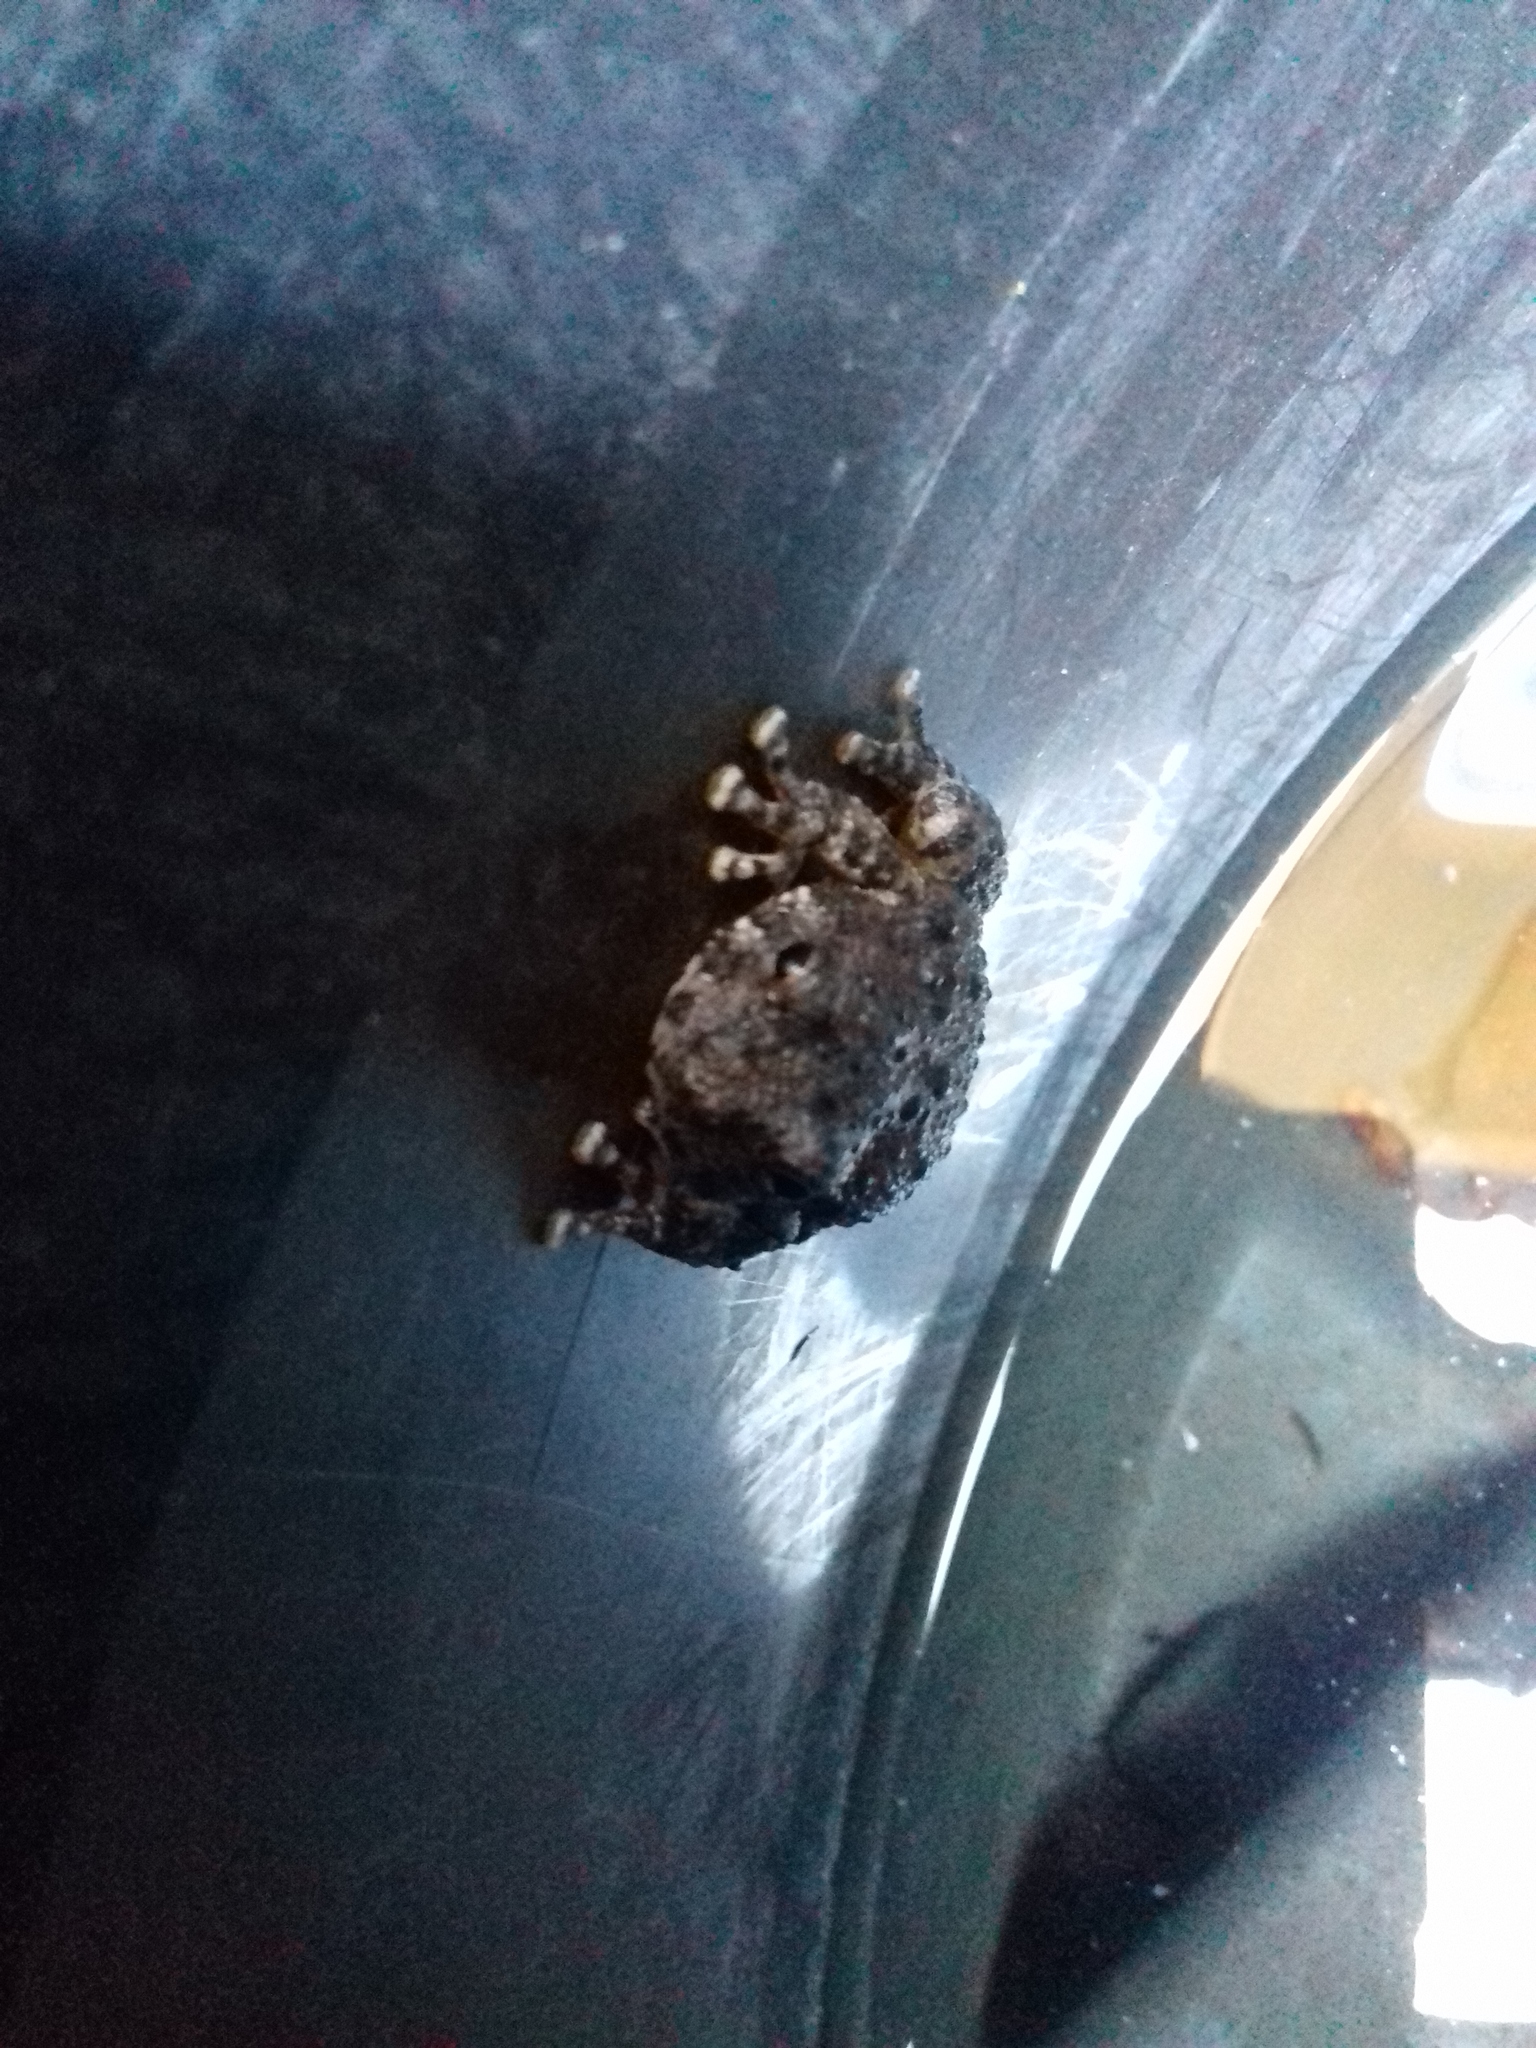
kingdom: Animalia
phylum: Chordata
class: Amphibia
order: Anura
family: Hylidae
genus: Dryophytes
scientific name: Dryophytes arenicolor
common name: Canyon treefrog
